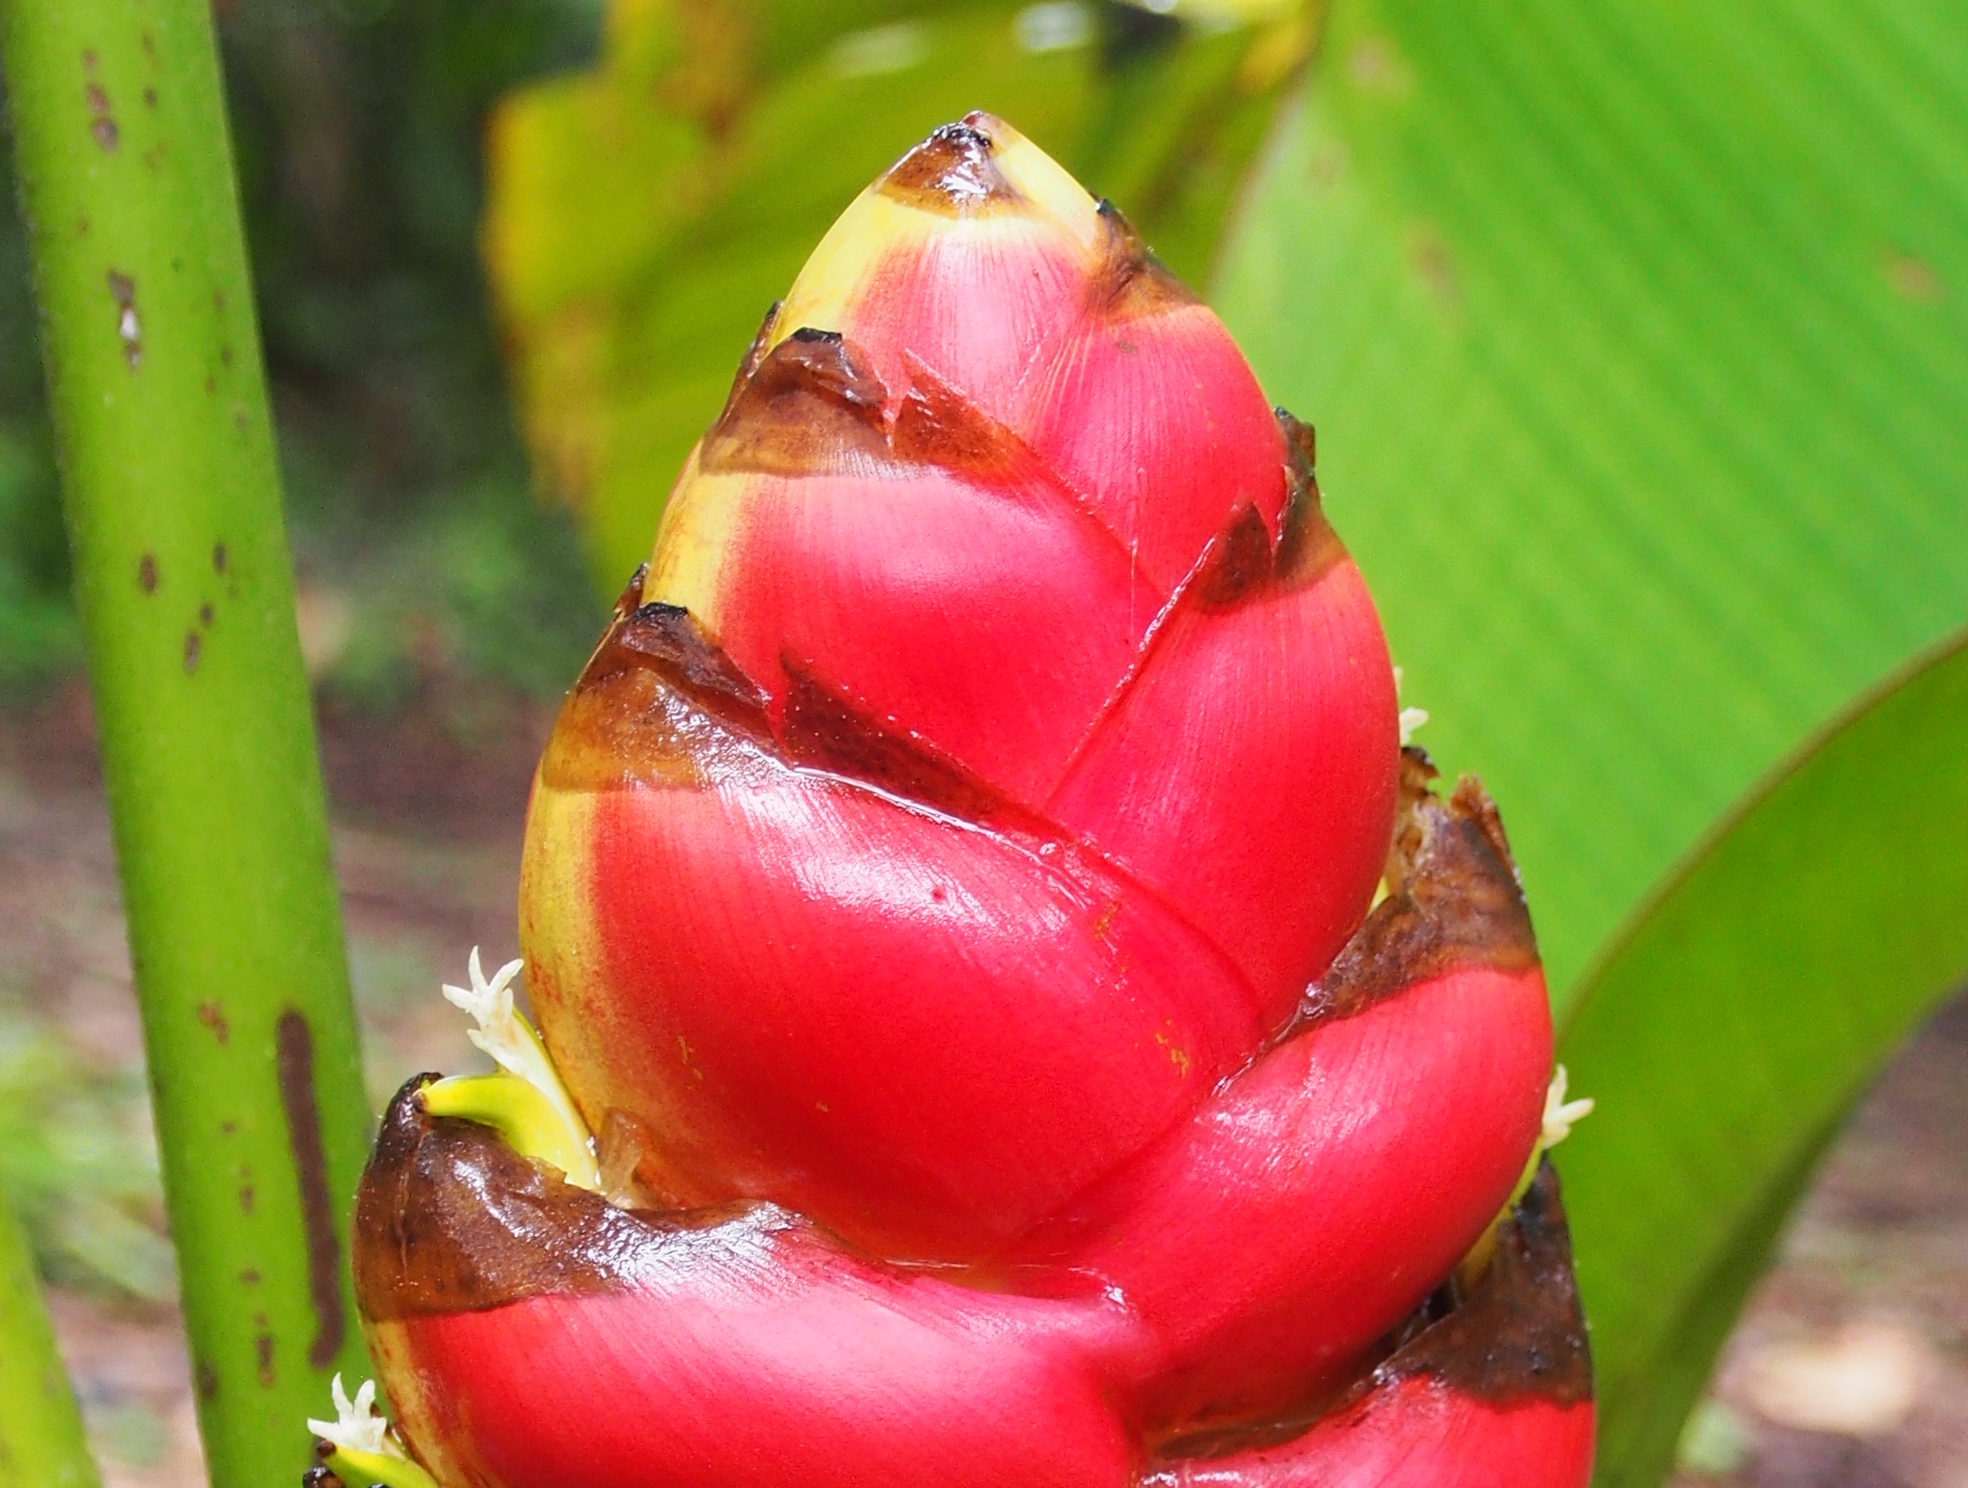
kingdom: Plantae
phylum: Tracheophyta
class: Liliopsida
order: Zingiberales
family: Heliconiaceae
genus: Heliconia
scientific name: Heliconia imbricata
